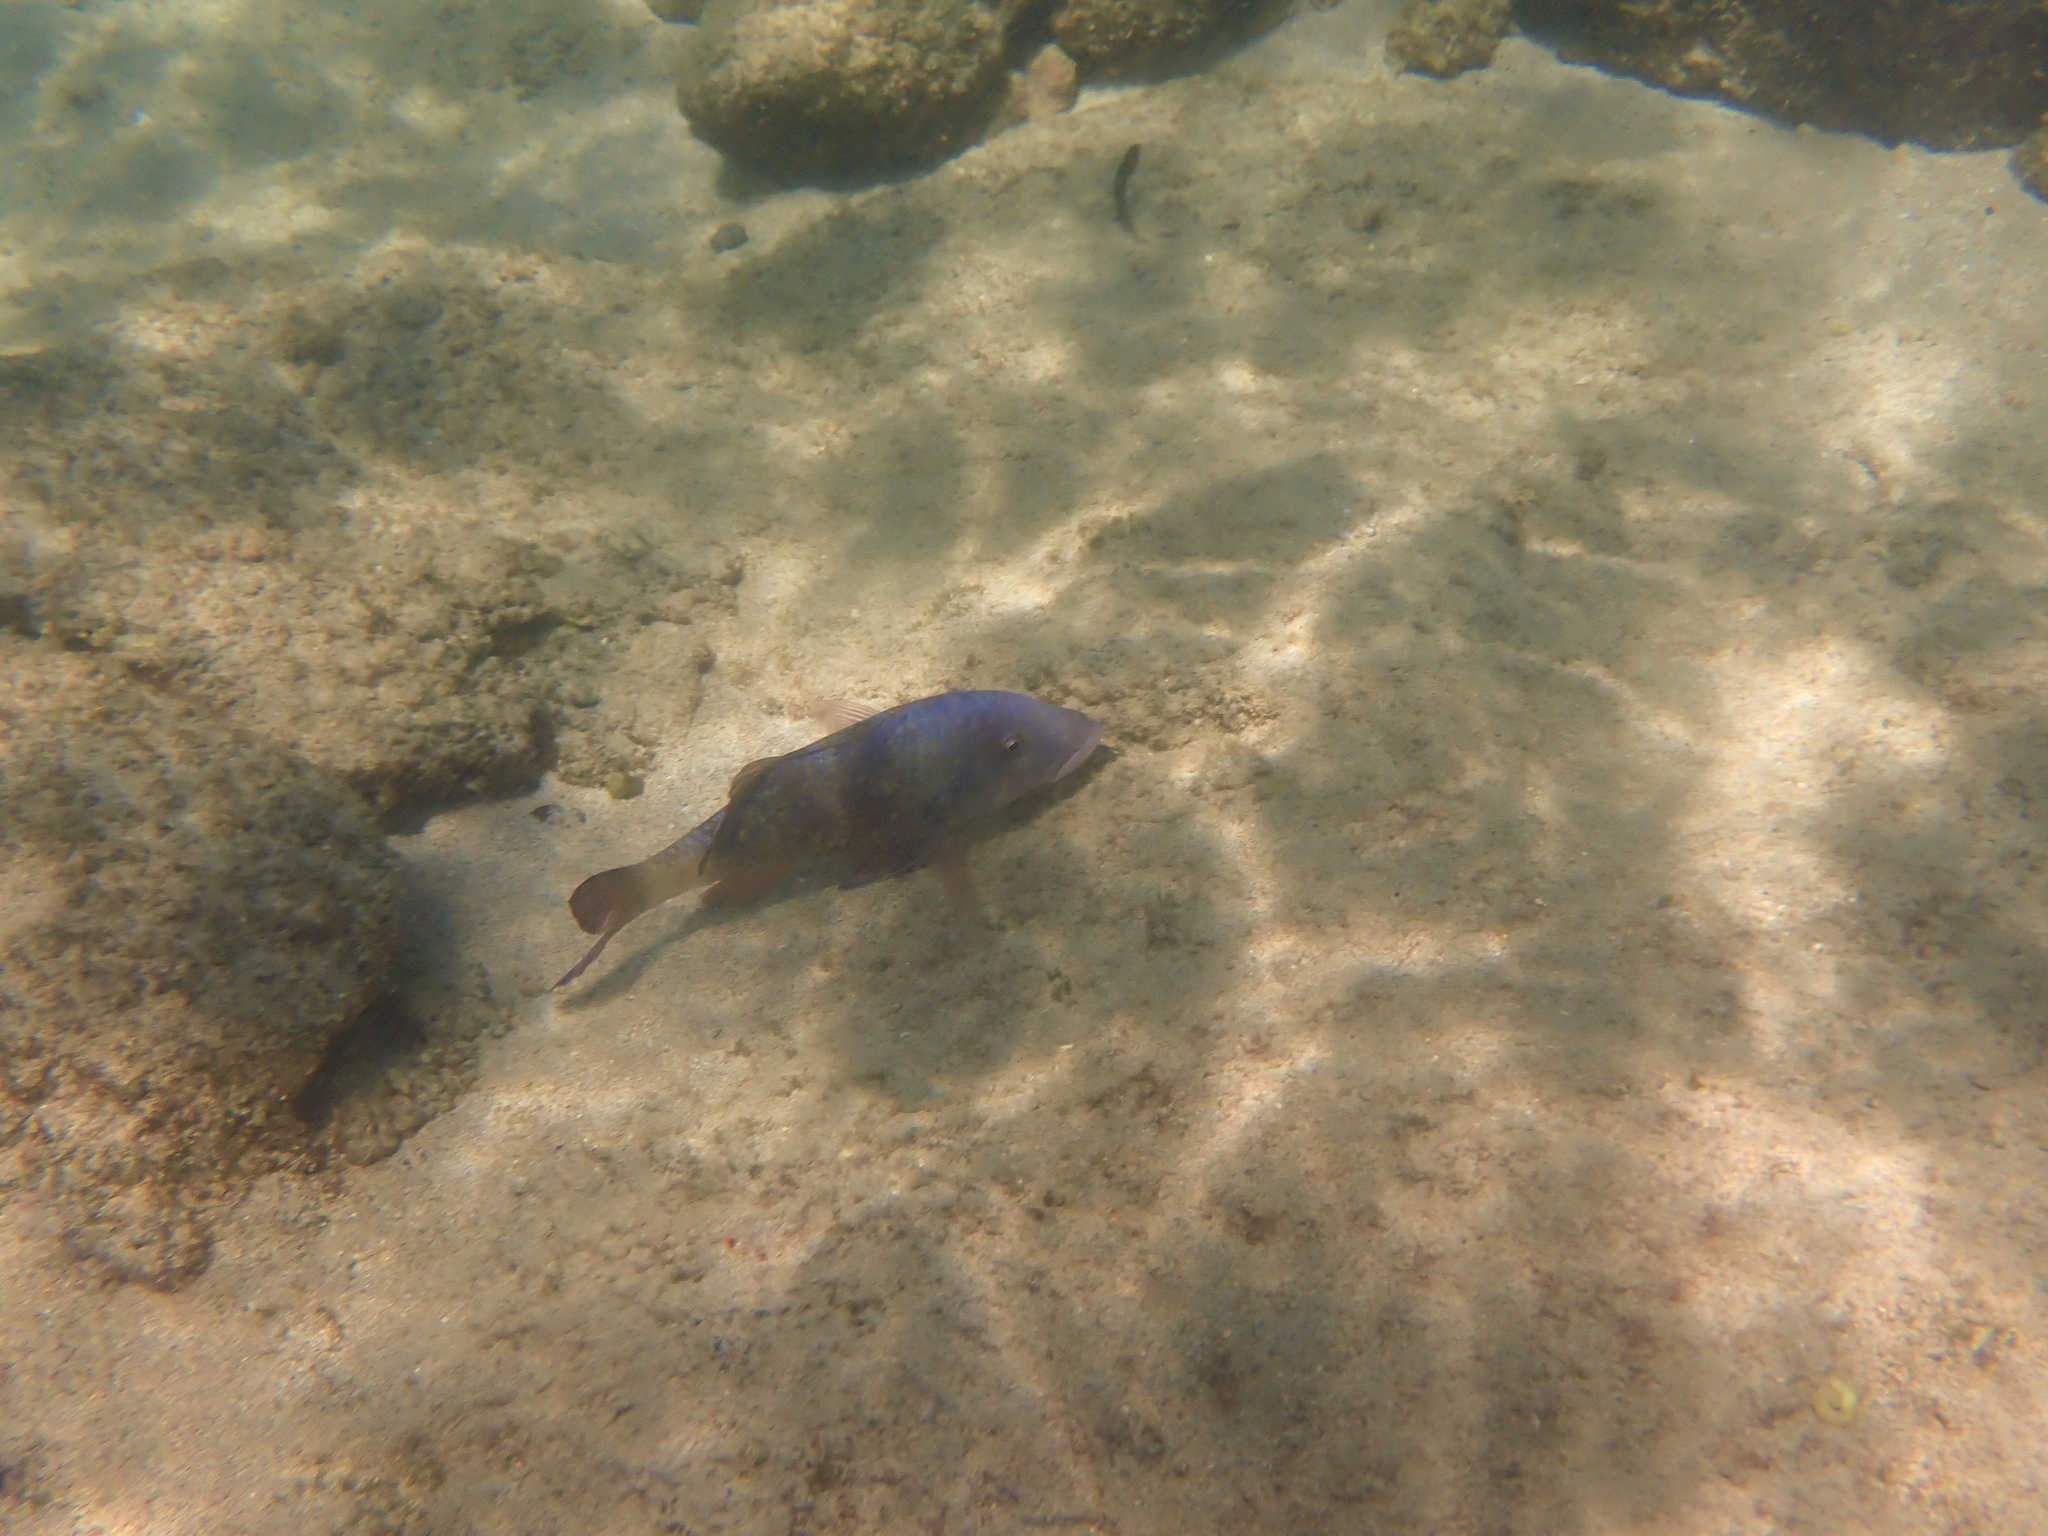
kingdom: Animalia
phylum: Chordata
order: Perciformes
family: Mullidae
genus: Parupeneus
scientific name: Parupeneus insularis
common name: Doublebar goatfish
